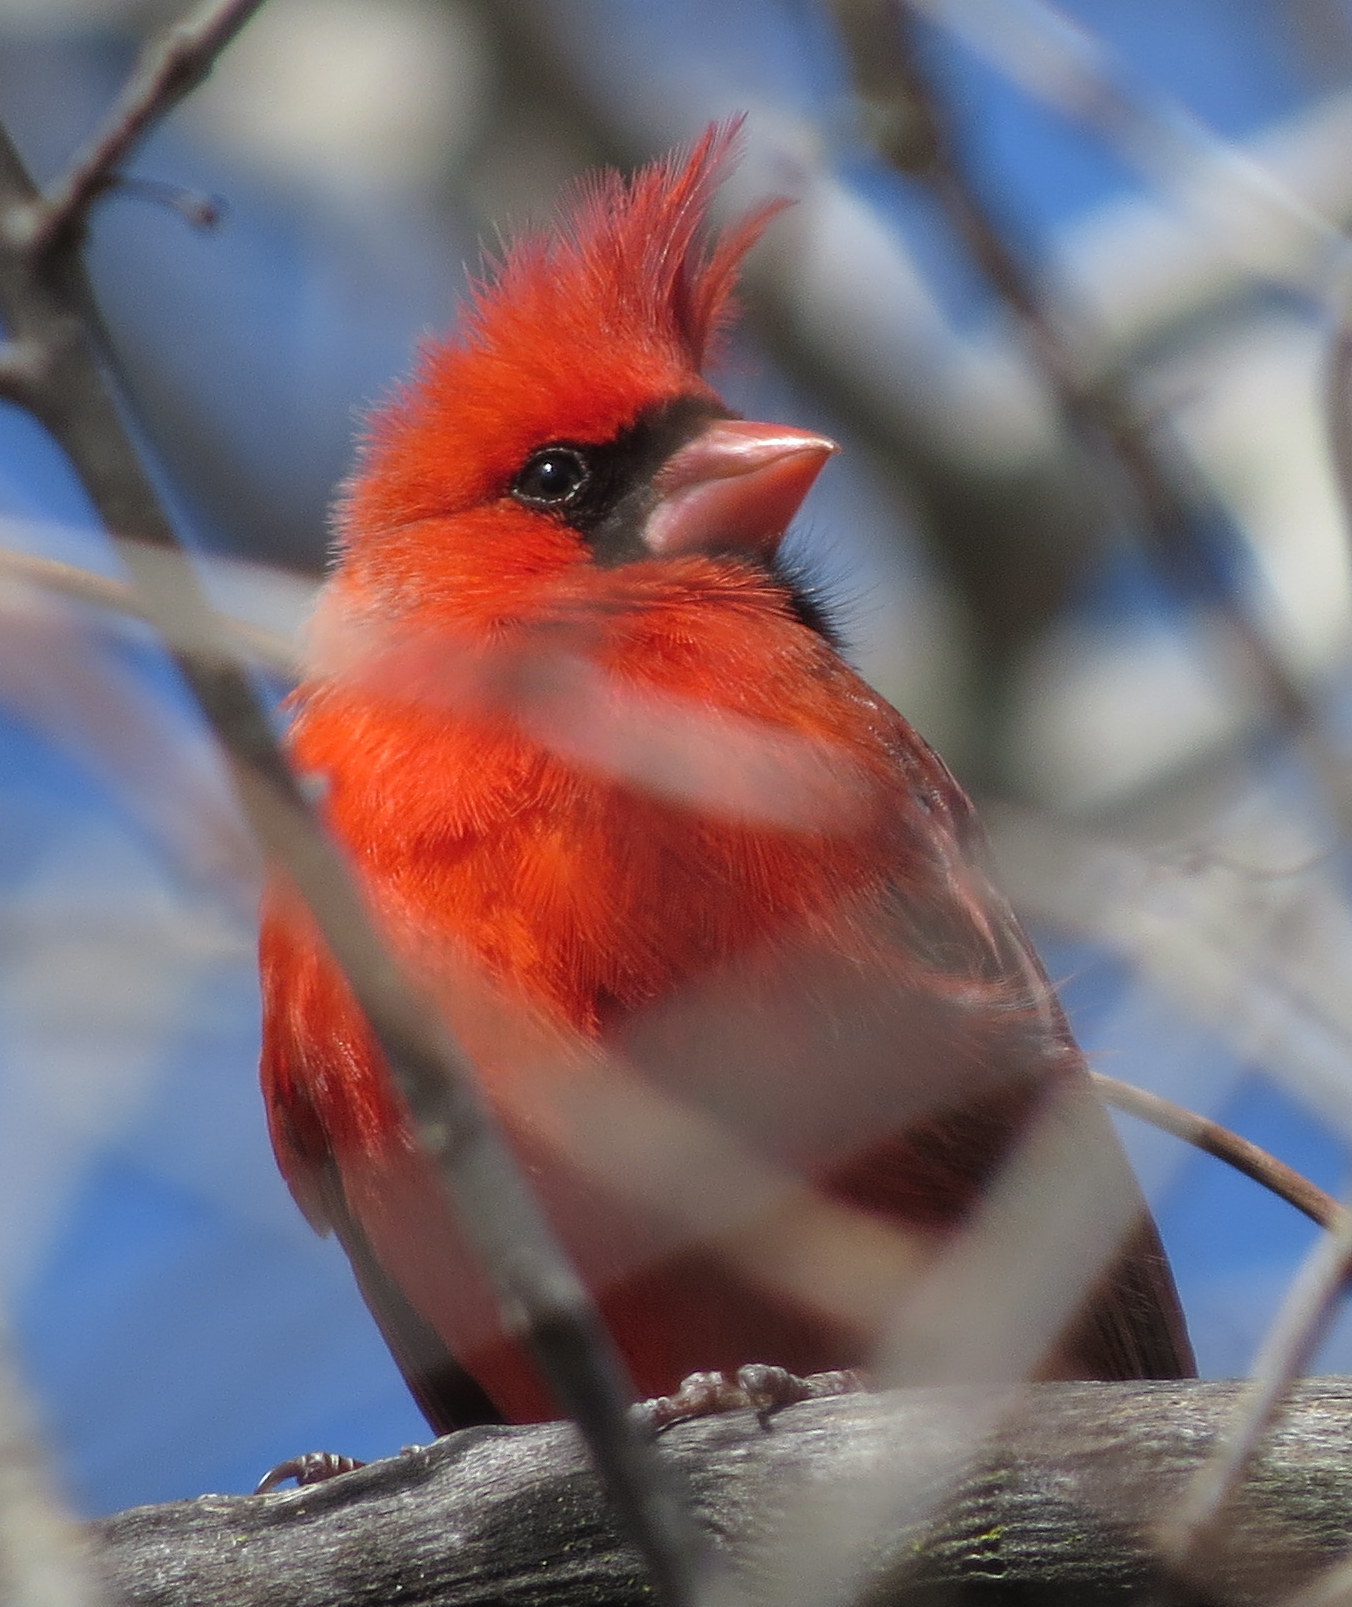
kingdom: Animalia
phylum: Chordata
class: Aves
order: Passeriformes
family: Cardinalidae
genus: Cardinalis
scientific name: Cardinalis cardinalis
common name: Northern cardinal
